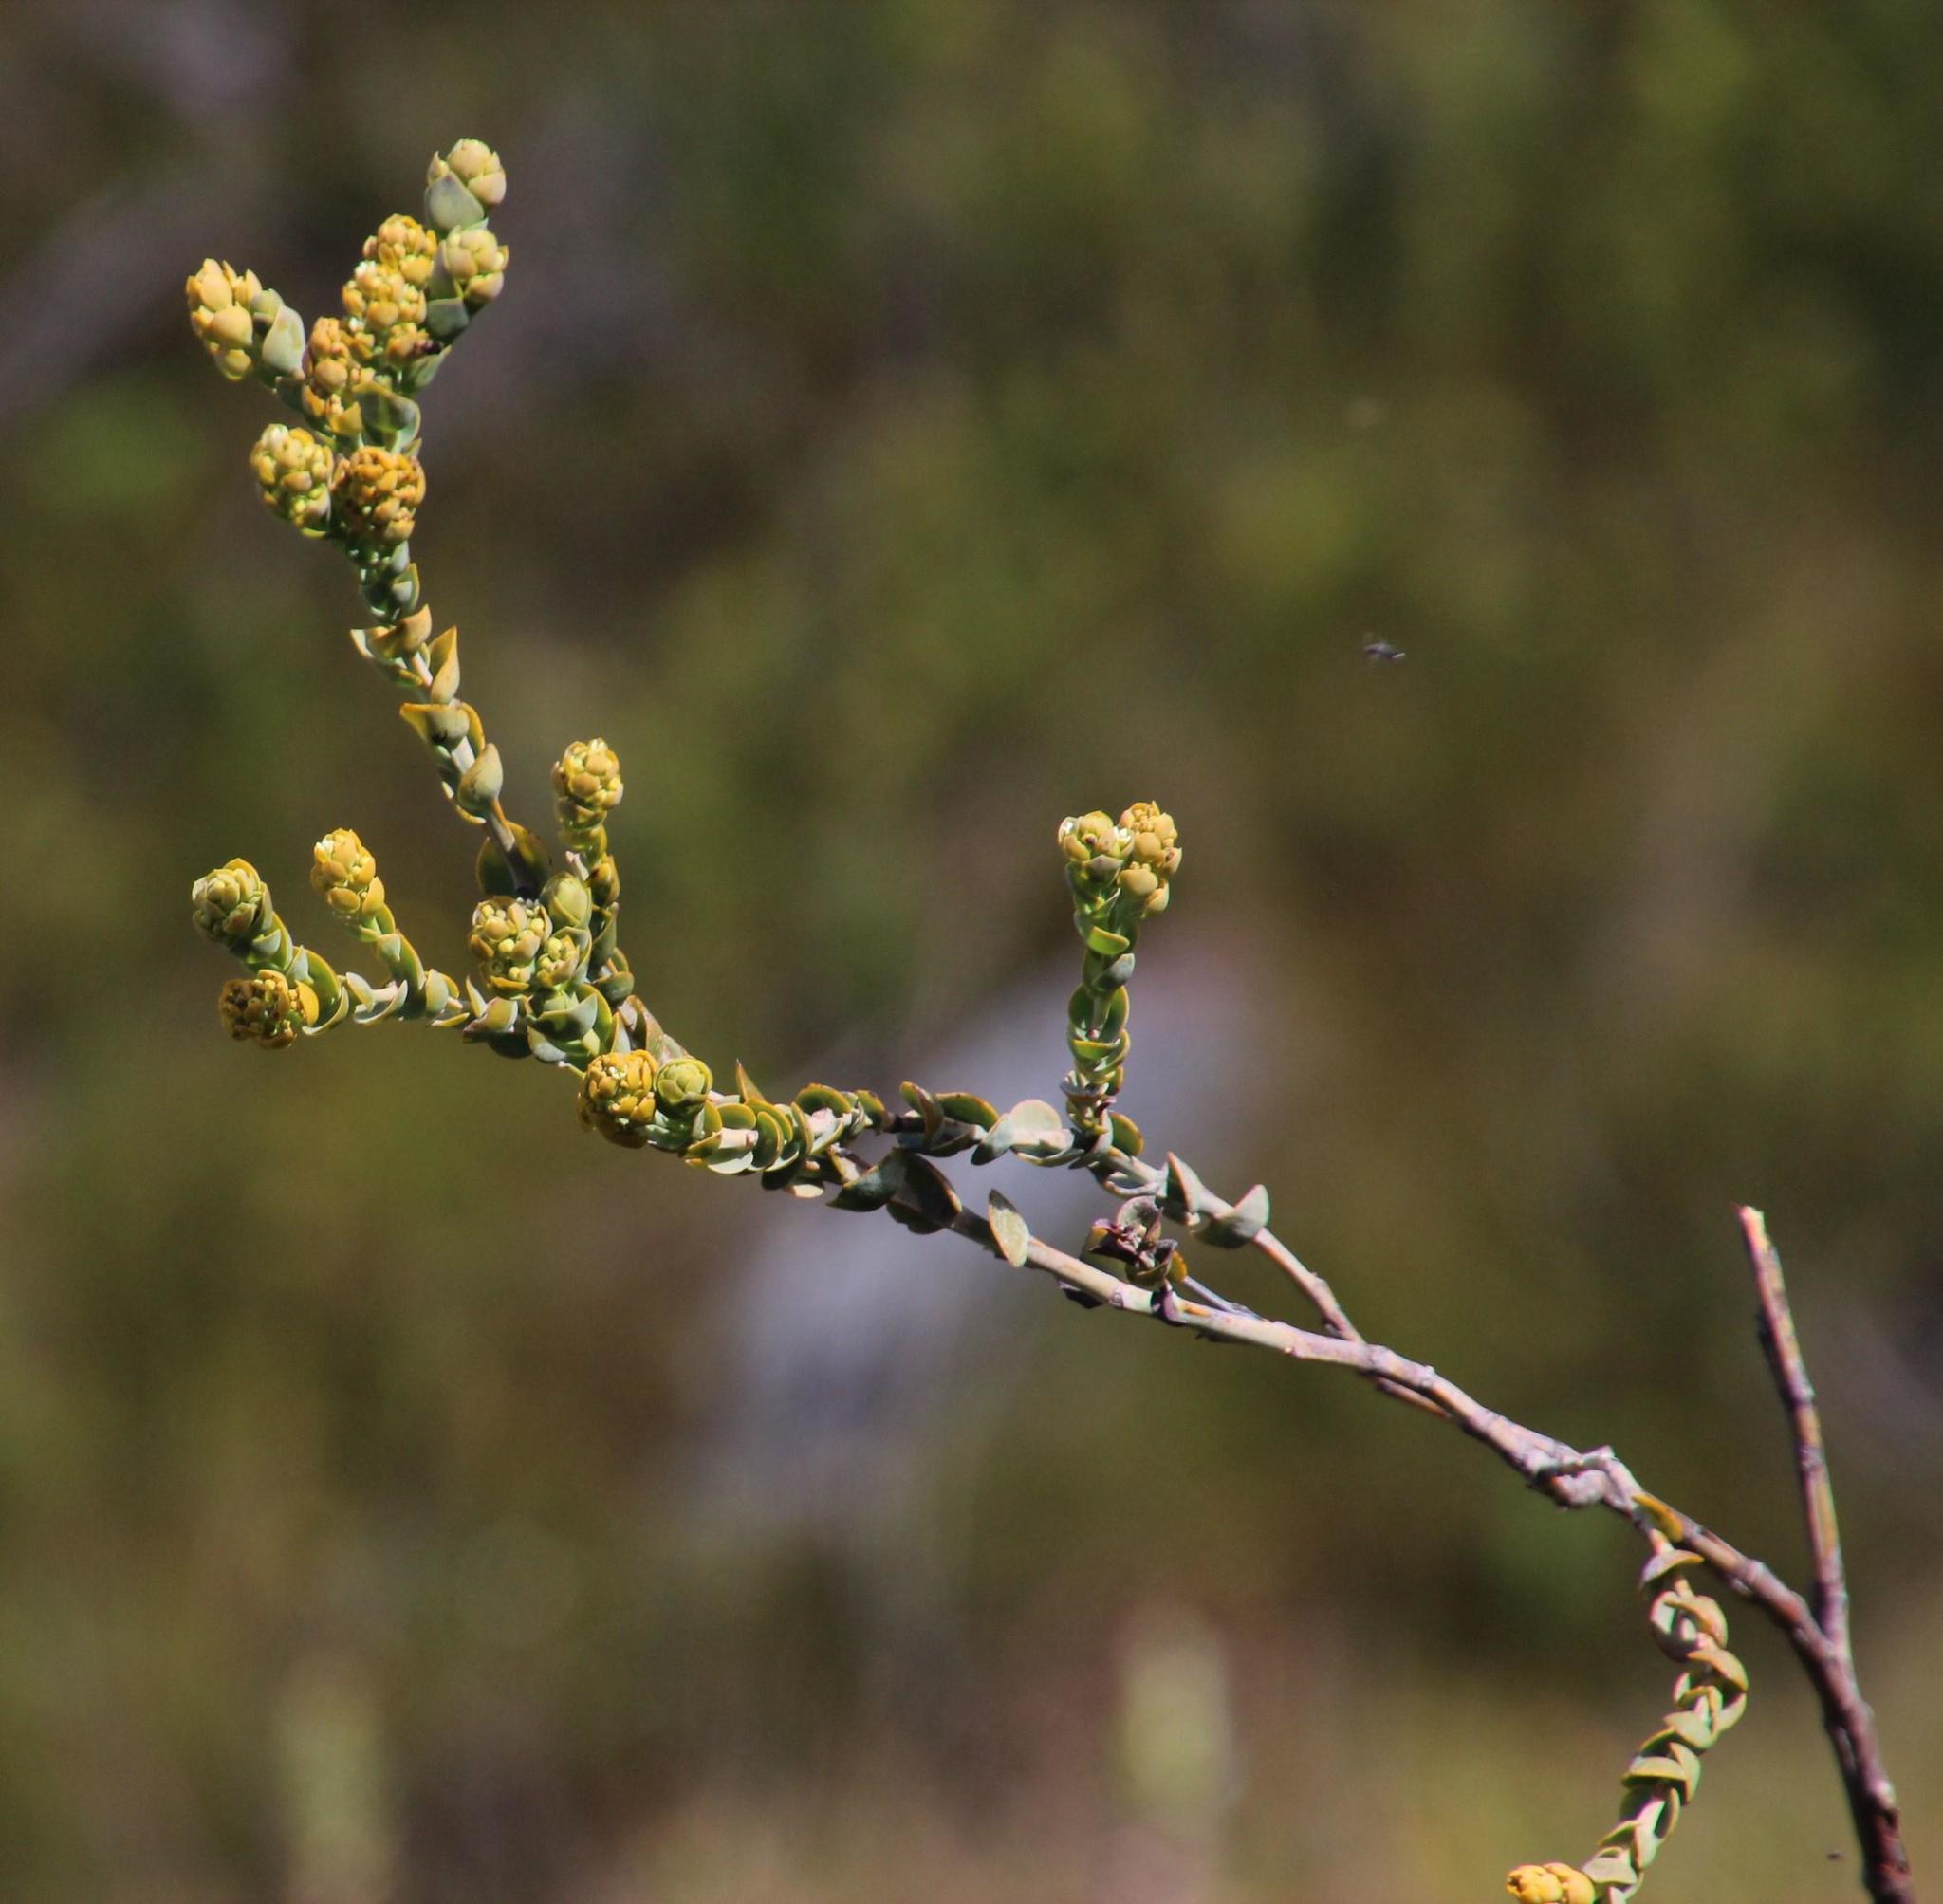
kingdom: Plantae
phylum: Tracheophyta
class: Magnoliopsida
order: Santalales
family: Thesiaceae
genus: Thesium
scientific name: Thesium euphorbioides
